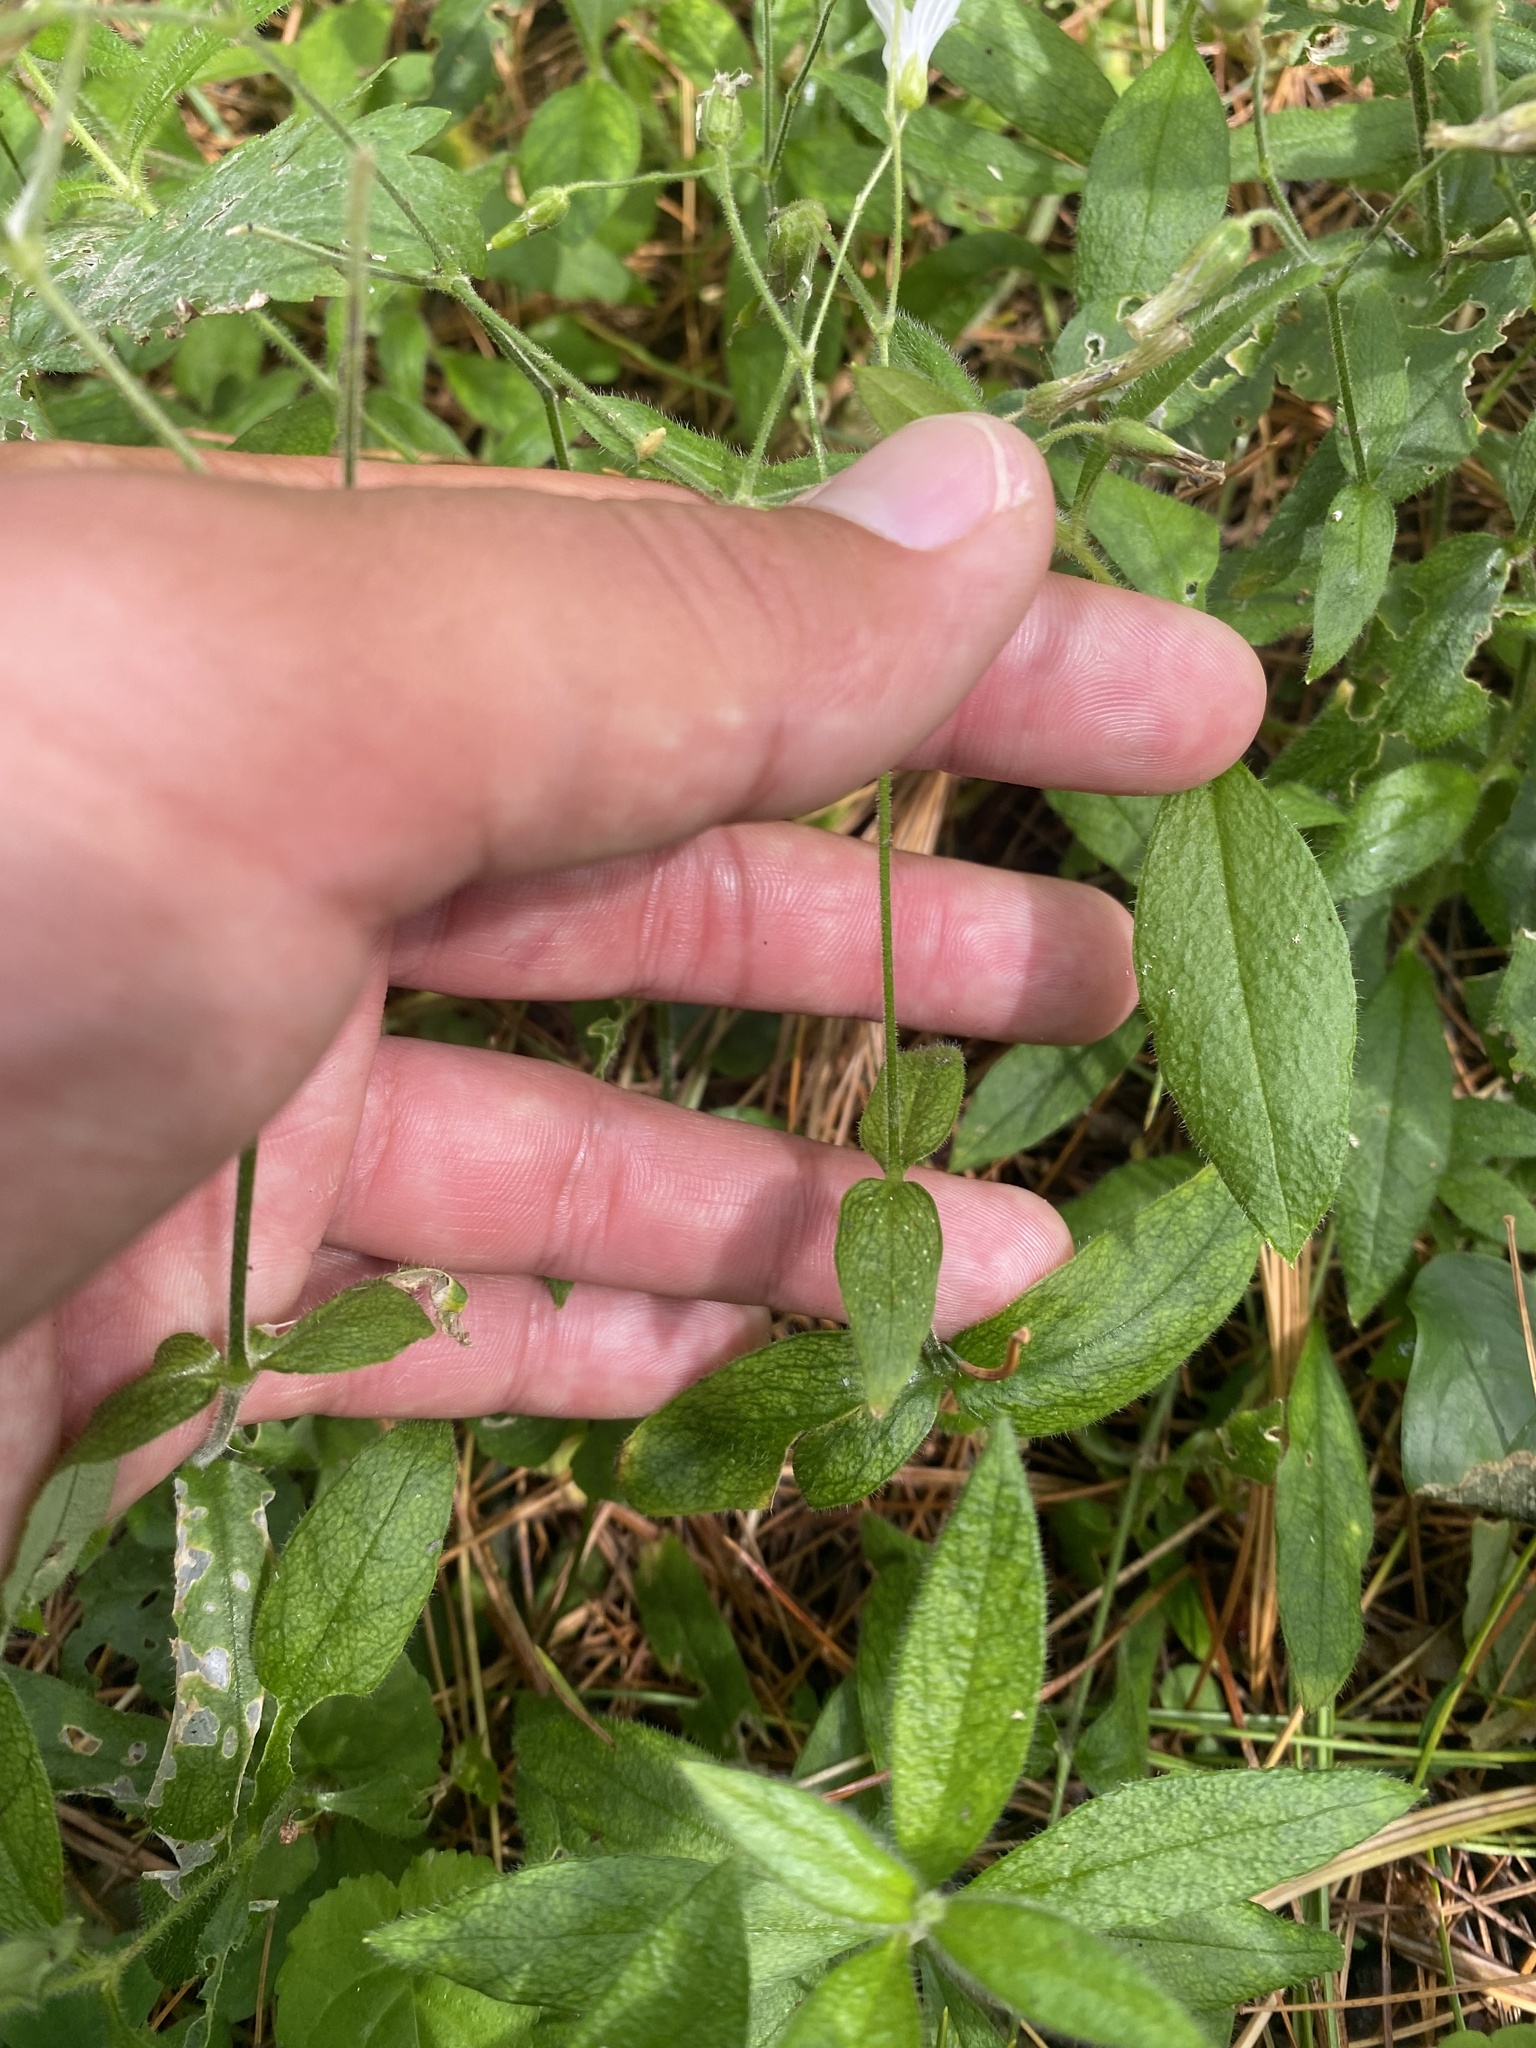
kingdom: Plantae
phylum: Tracheophyta
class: Magnoliopsida
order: Caryophyllales
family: Caryophyllaceae
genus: Cerastium
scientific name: Cerastium pauciflorum
